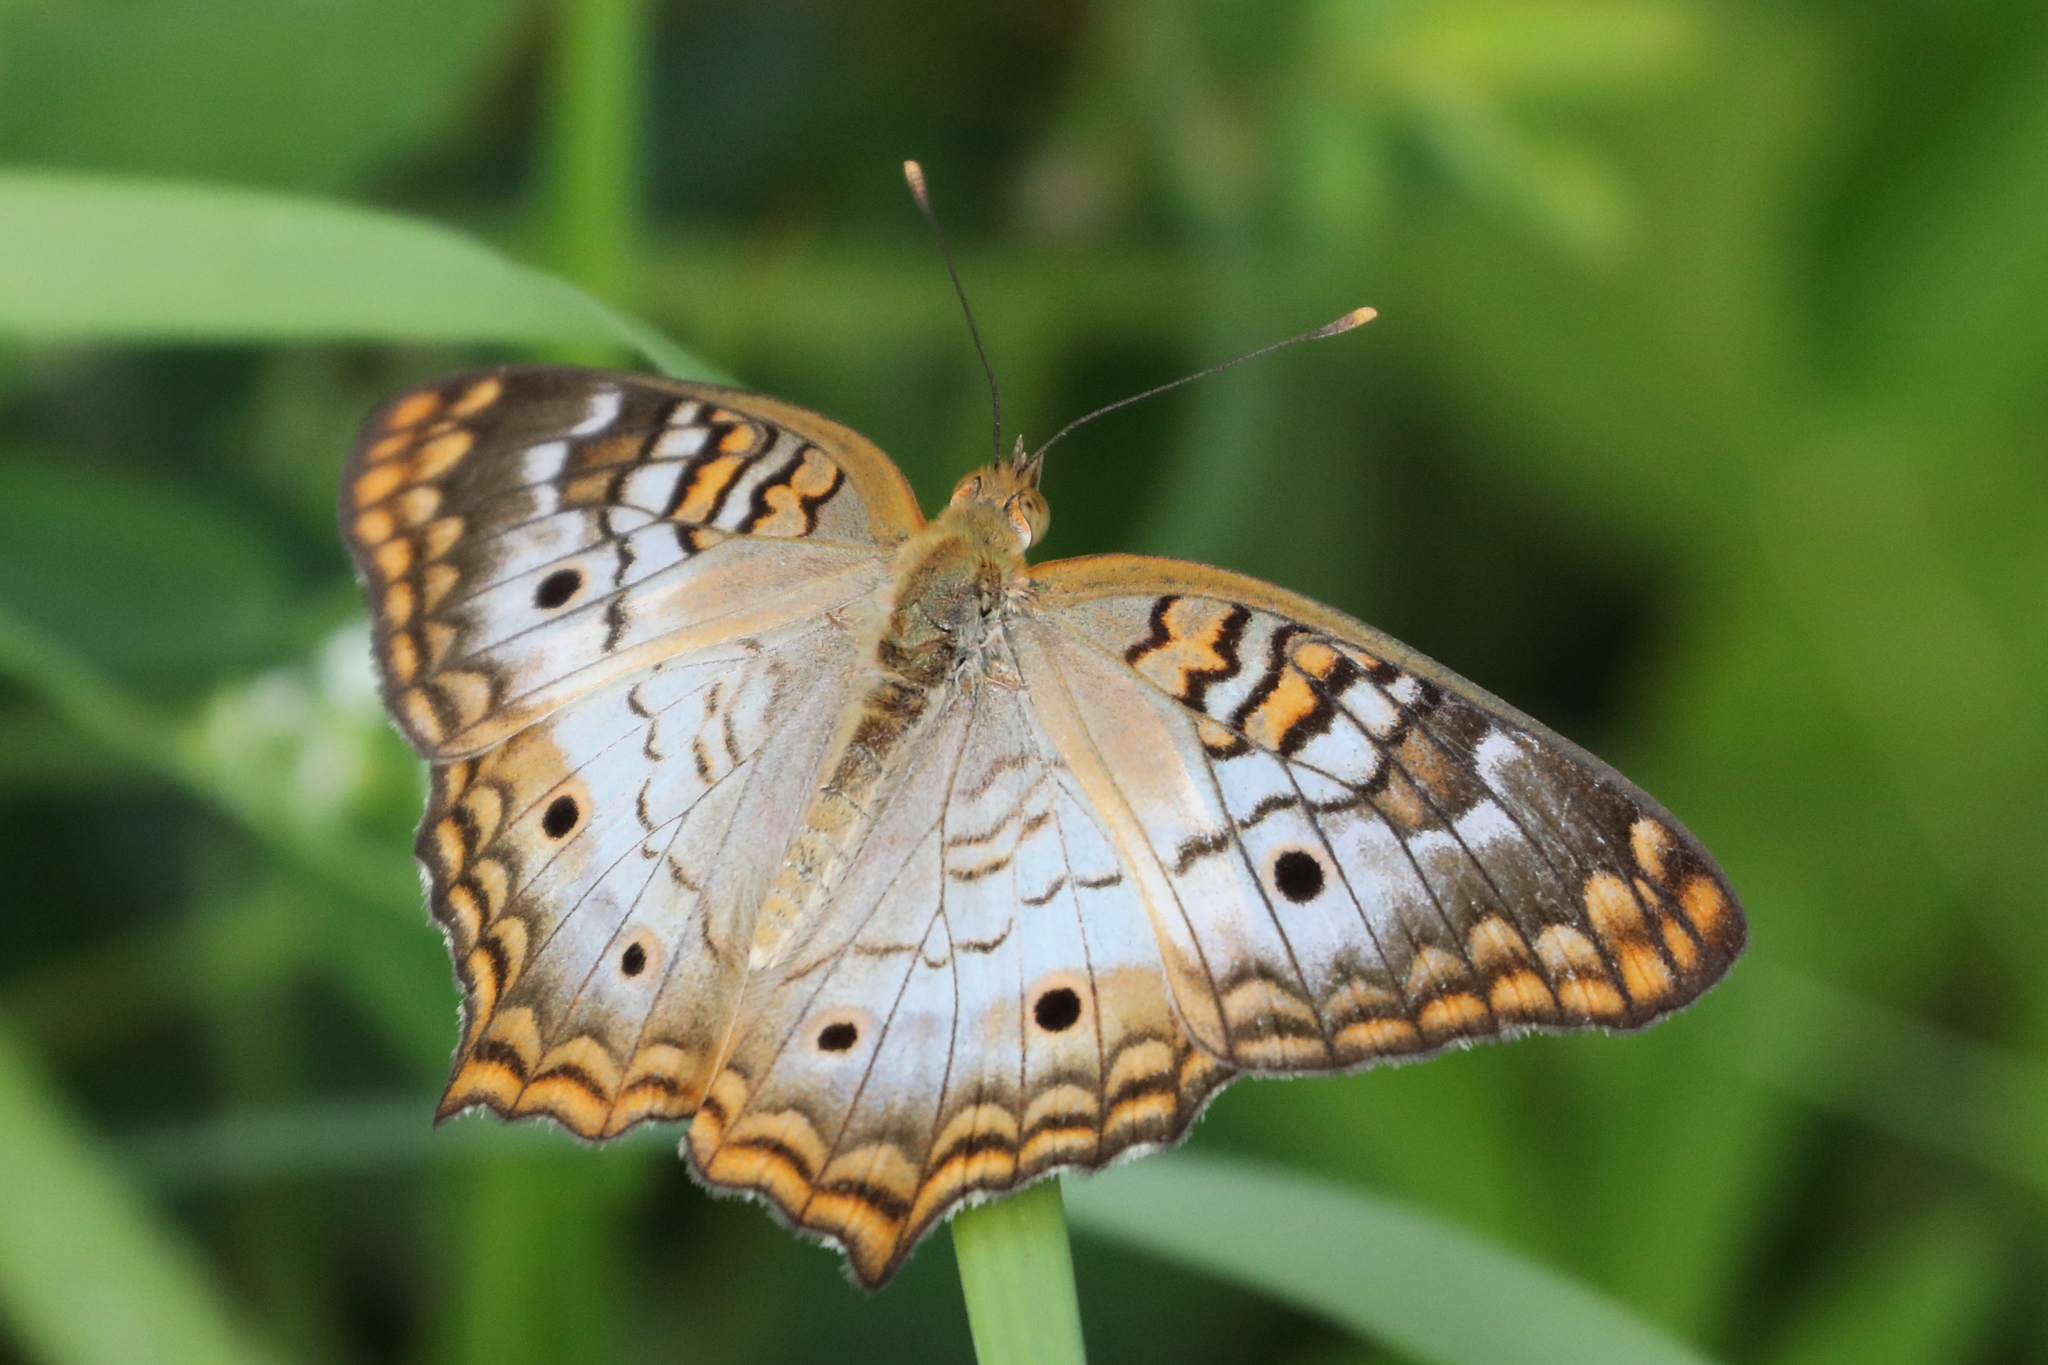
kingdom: Animalia
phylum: Arthropoda
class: Insecta
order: Lepidoptera
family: Nymphalidae
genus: Anartia
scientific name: Anartia jatrophae
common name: White peacock
